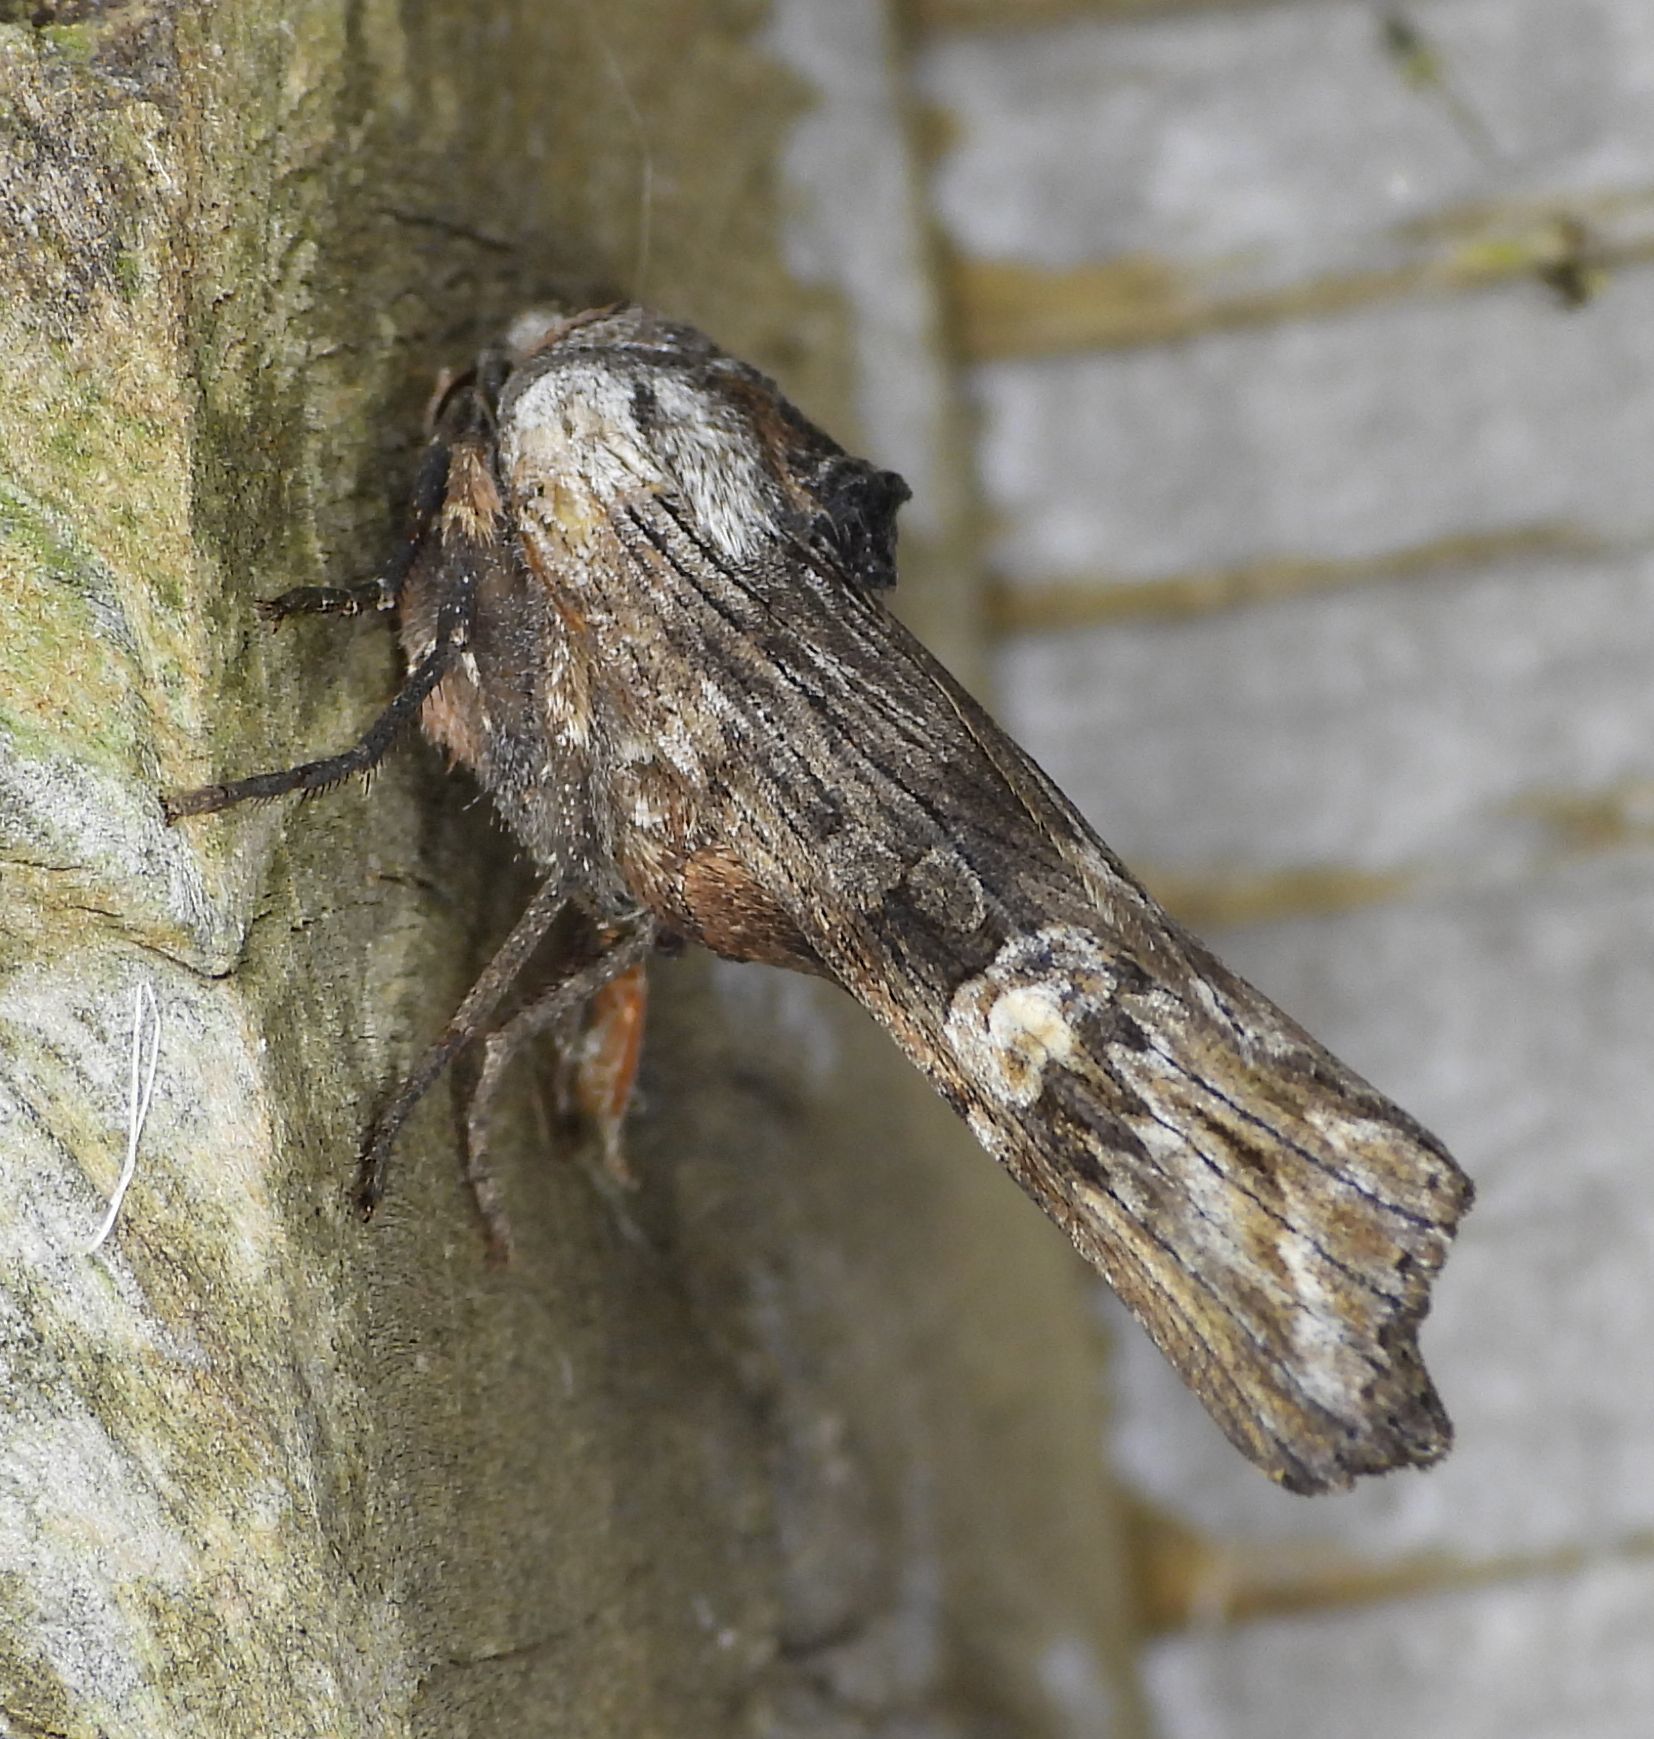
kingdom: Animalia
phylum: Arthropoda
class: Insecta
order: Lepidoptera
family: Noctuidae
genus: Xylena
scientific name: Xylena germana
